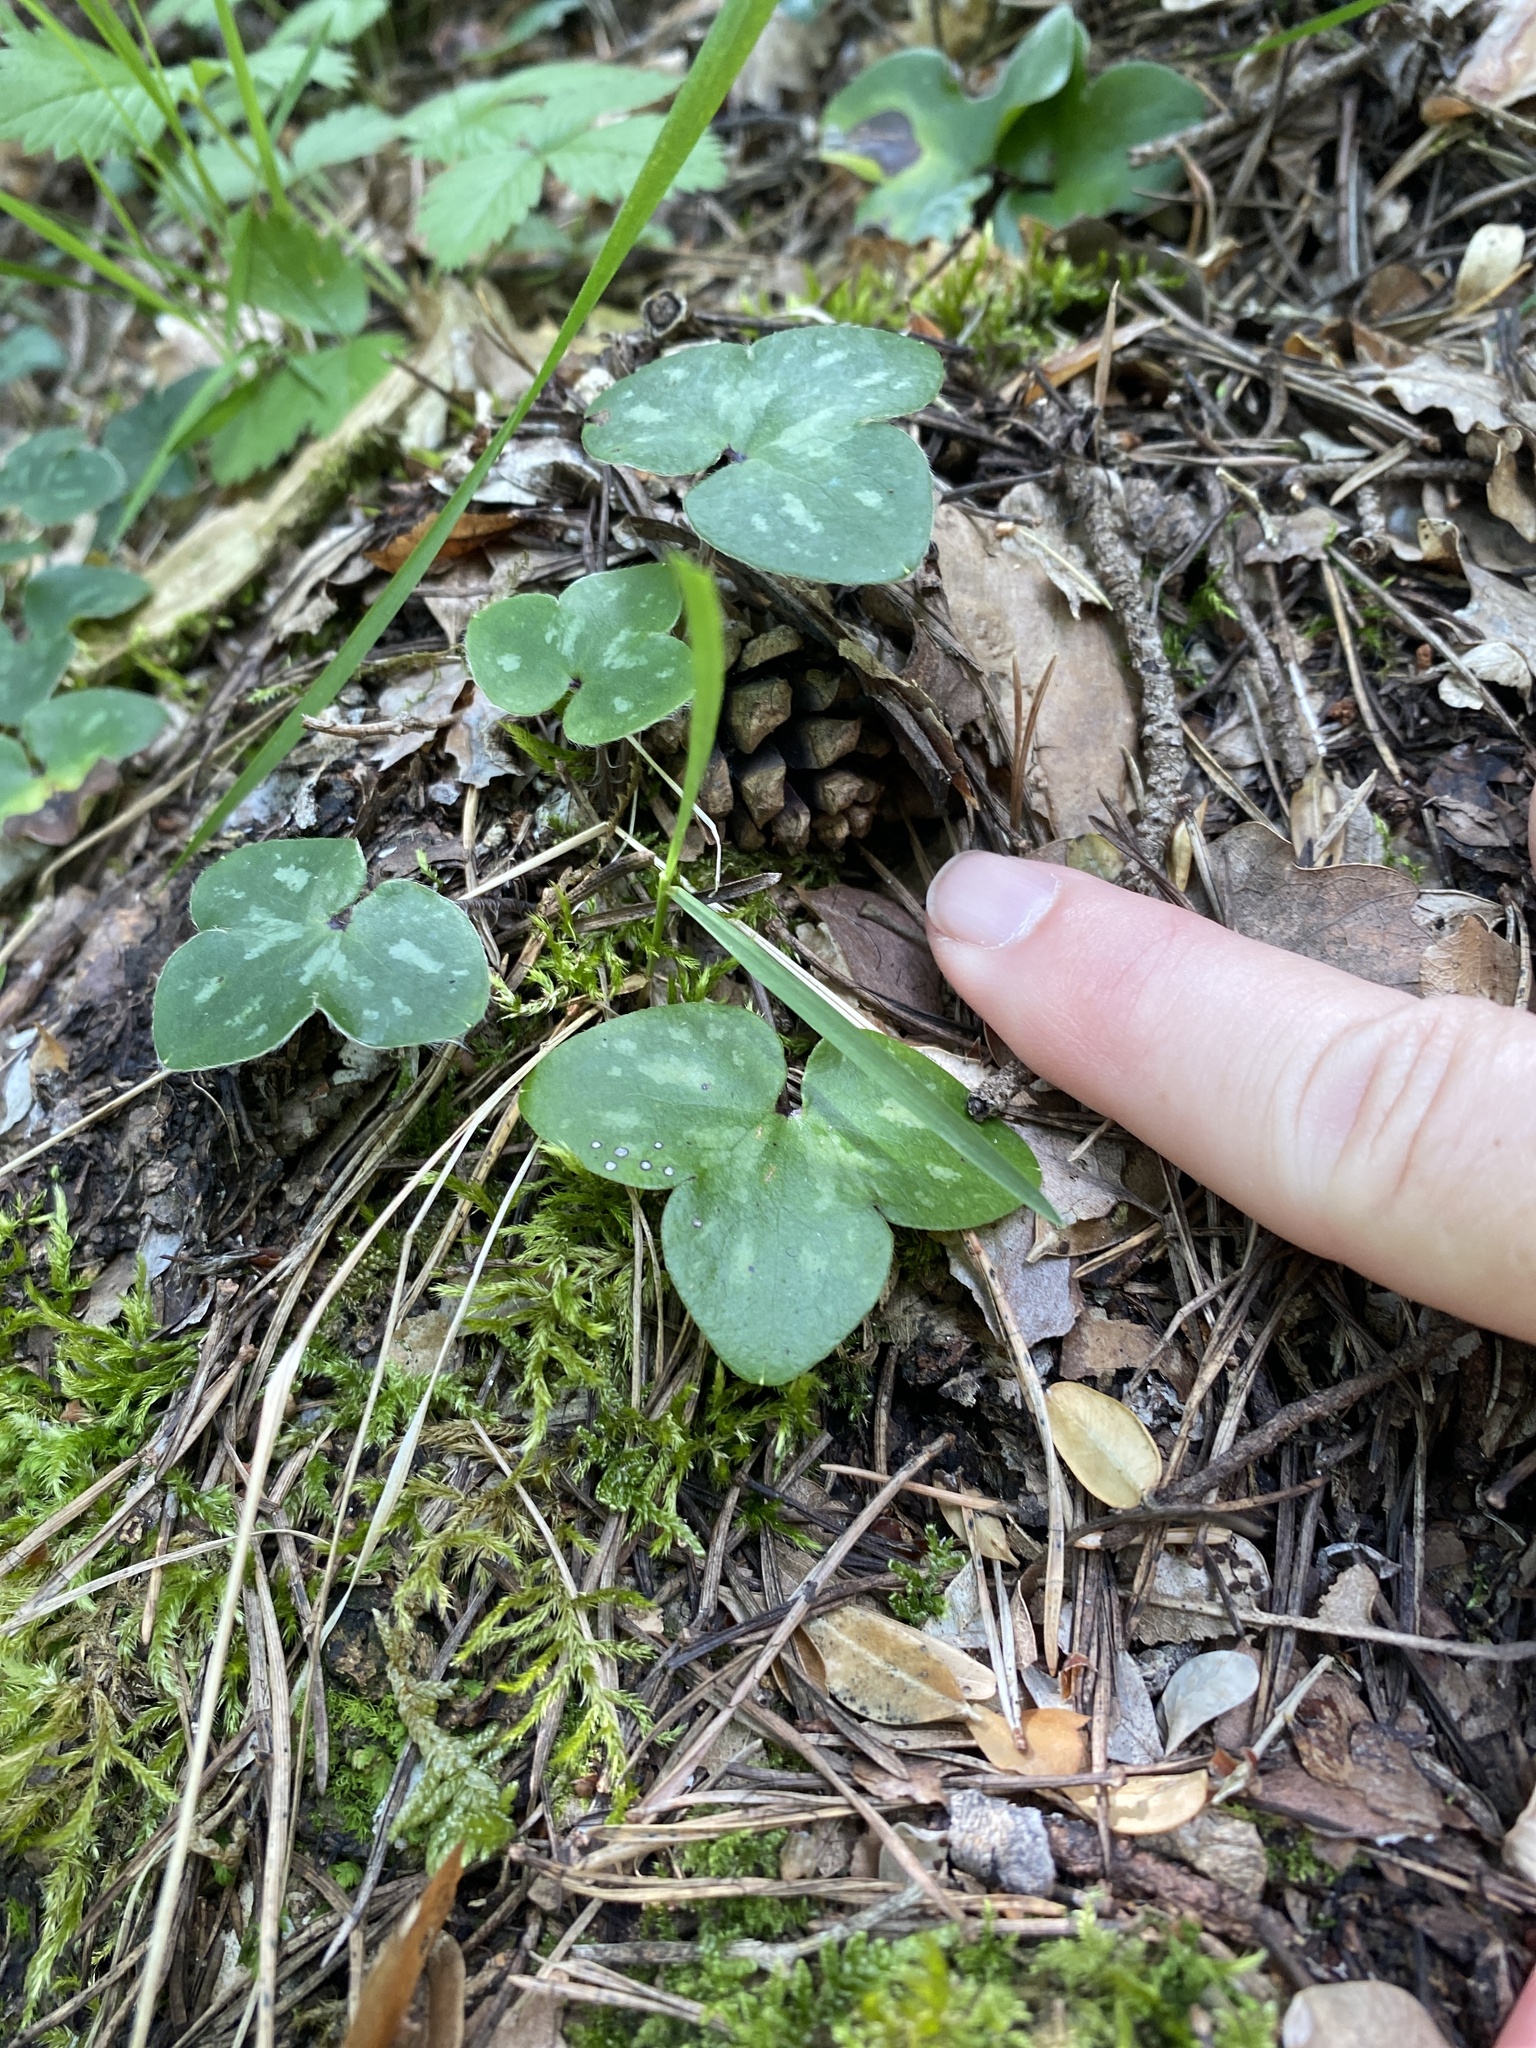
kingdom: Plantae
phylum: Tracheophyta
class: Magnoliopsida
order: Ranunculales
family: Ranunculaceae
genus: Hepatica
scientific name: Hepatica nobilis
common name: Liverleaf
